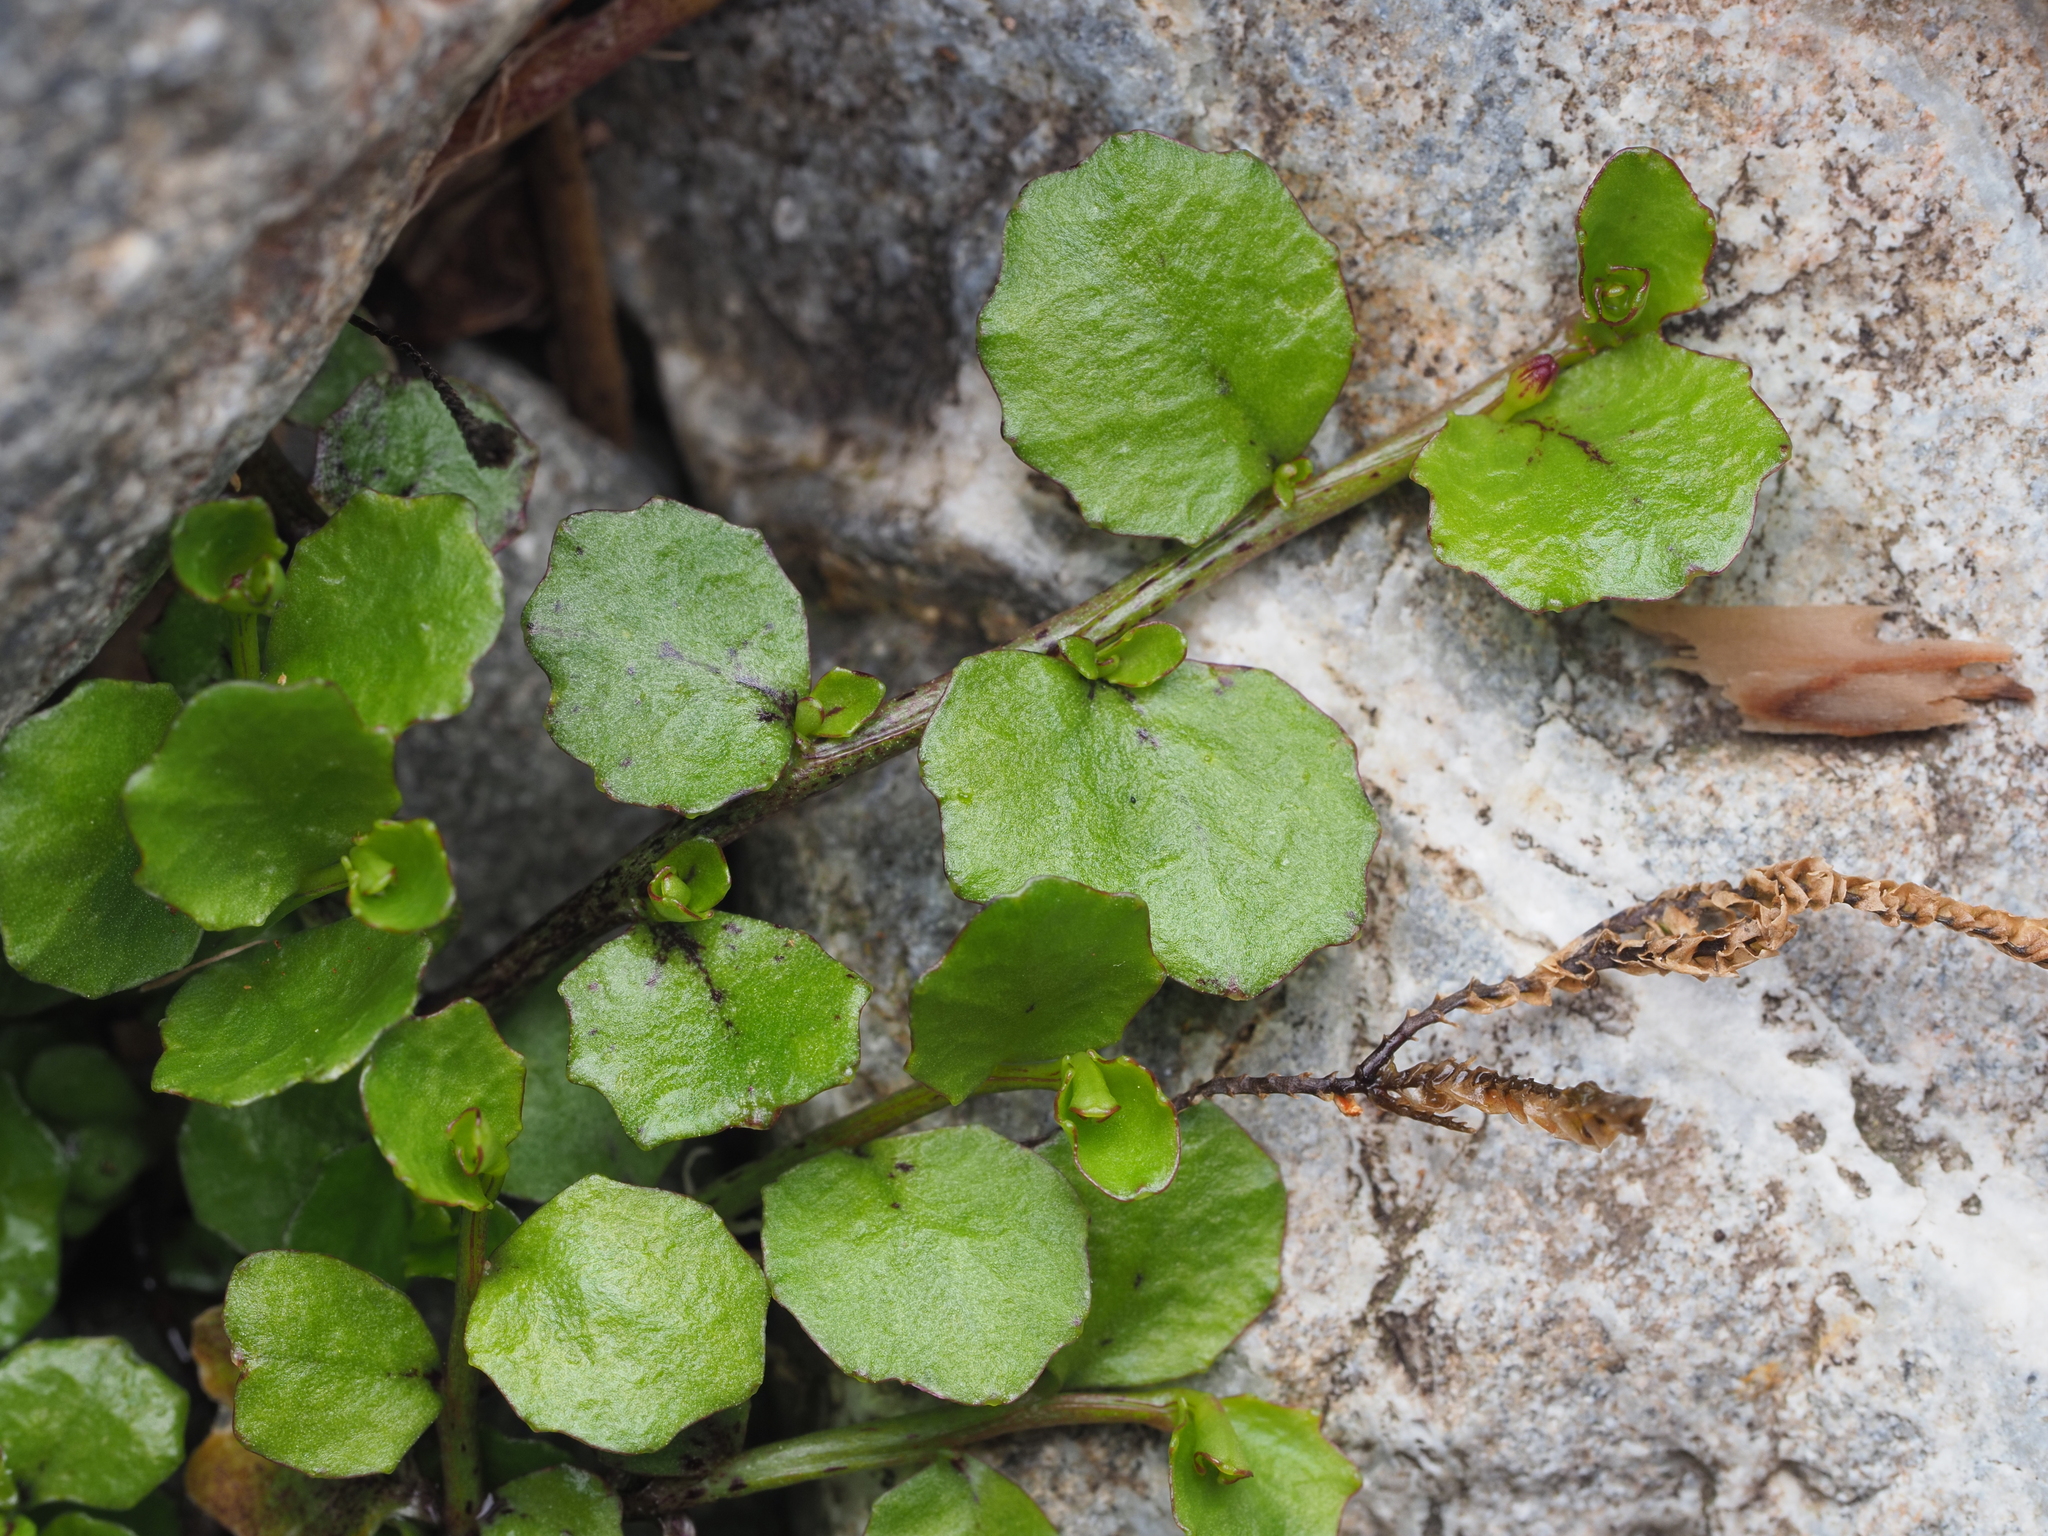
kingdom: Plantae
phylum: Tracheophyta
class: Magnoliopsida
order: Asterales
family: Campanulaceae
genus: Lobelia
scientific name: Lobelia angulata
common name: Lawn lobelia
